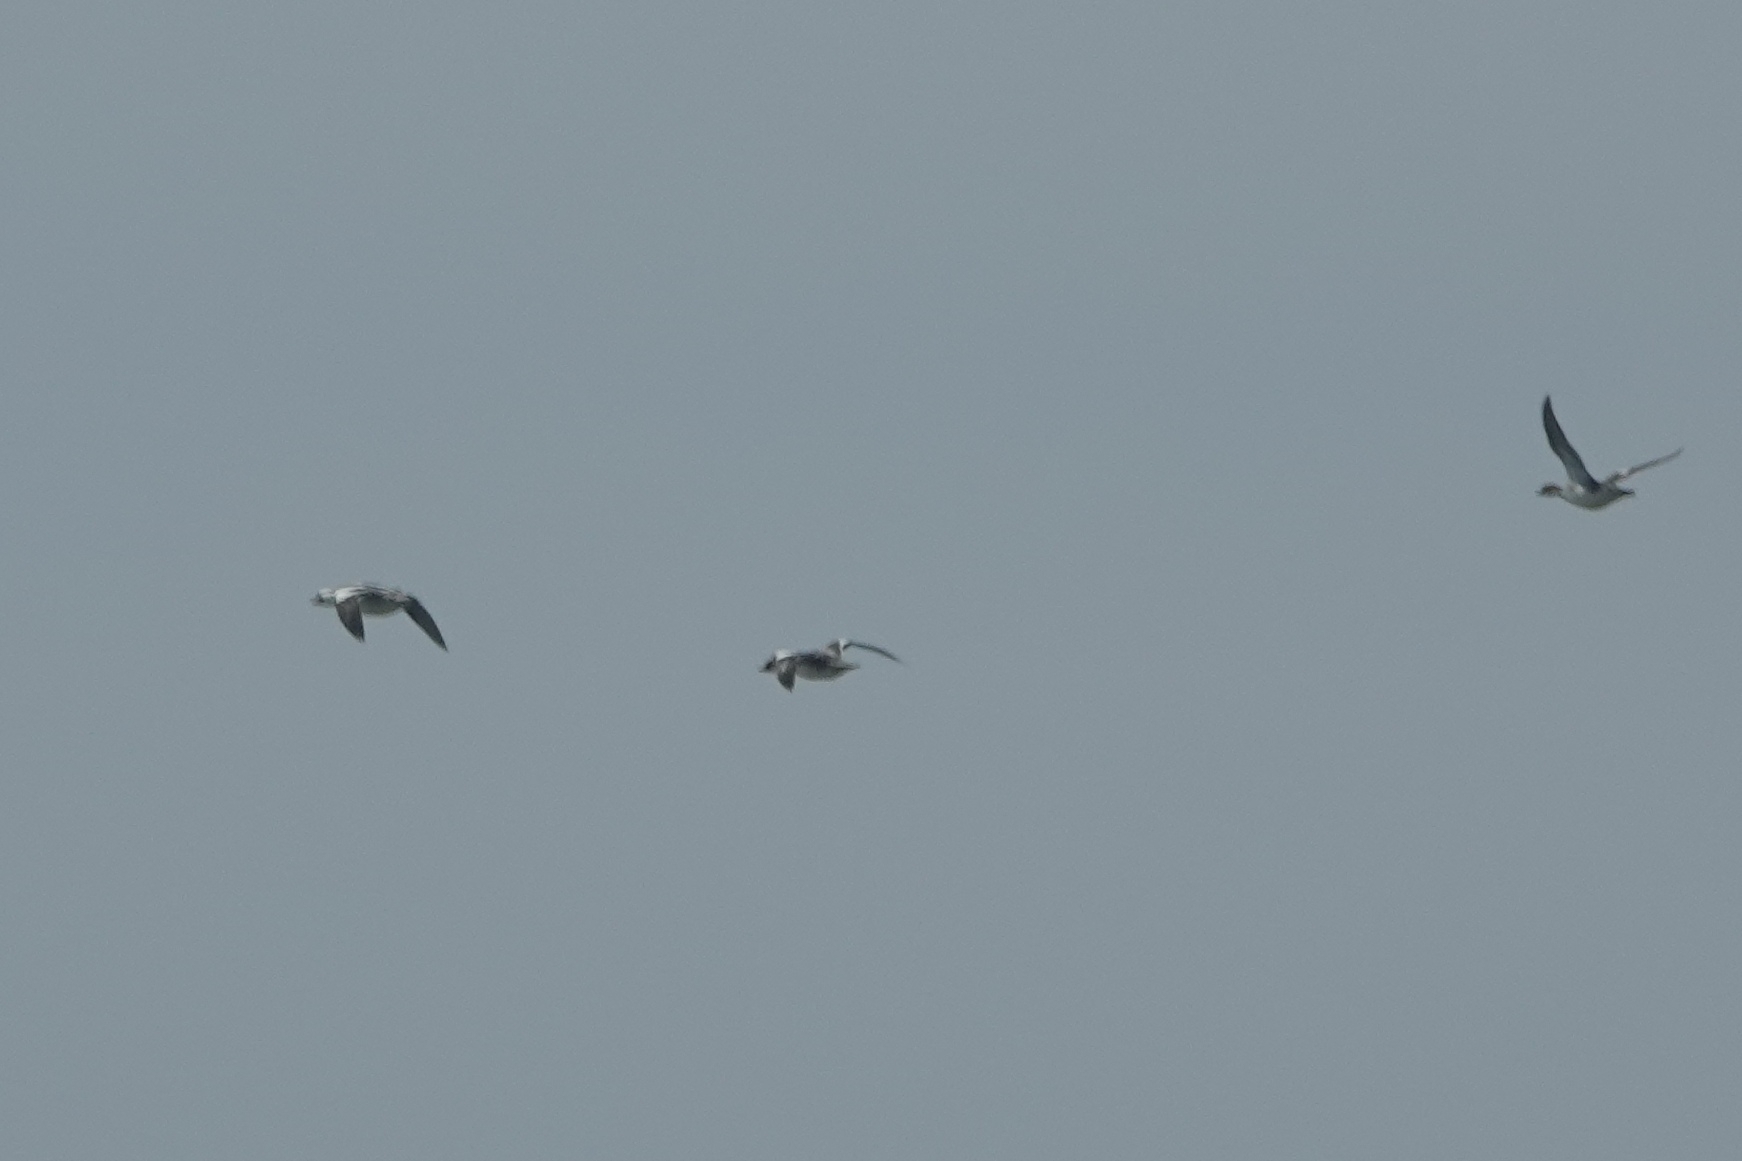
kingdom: Animalia
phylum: Chordata
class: Aves
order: Anseriformes
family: Anatidae
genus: Mergellus
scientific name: Mergellus albellus
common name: Smew
